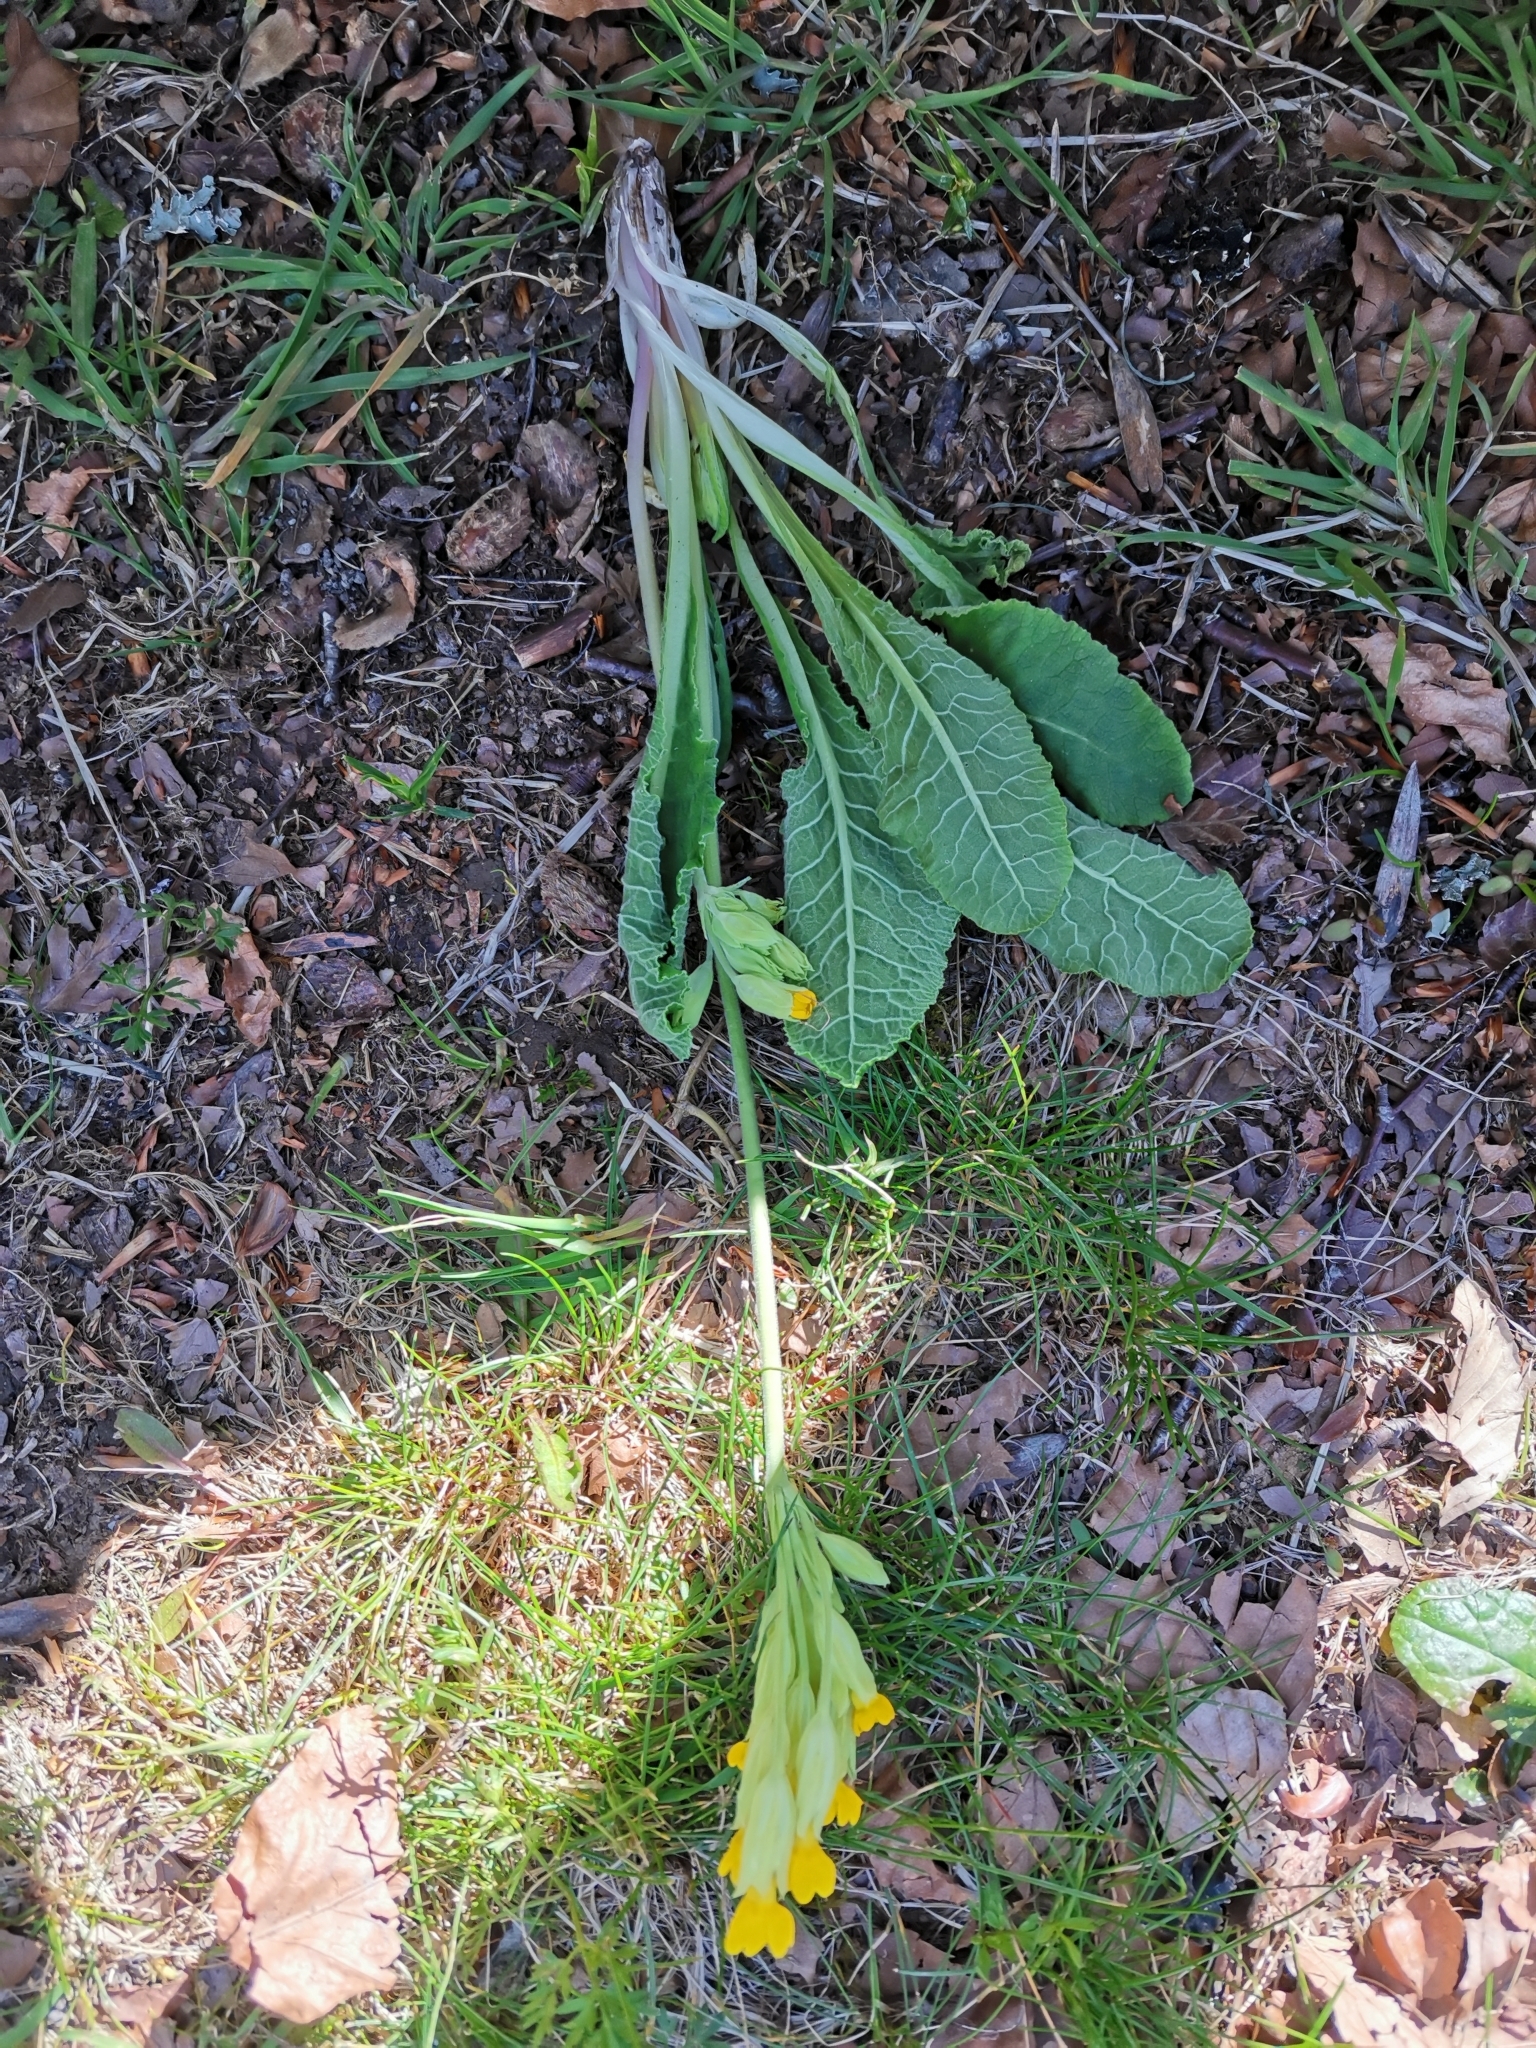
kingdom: Plantae
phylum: Tracheophyta
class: Magnoliopsida
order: Ericales
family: Primulaceae
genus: Primula
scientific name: Primula veris
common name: Cowslip
